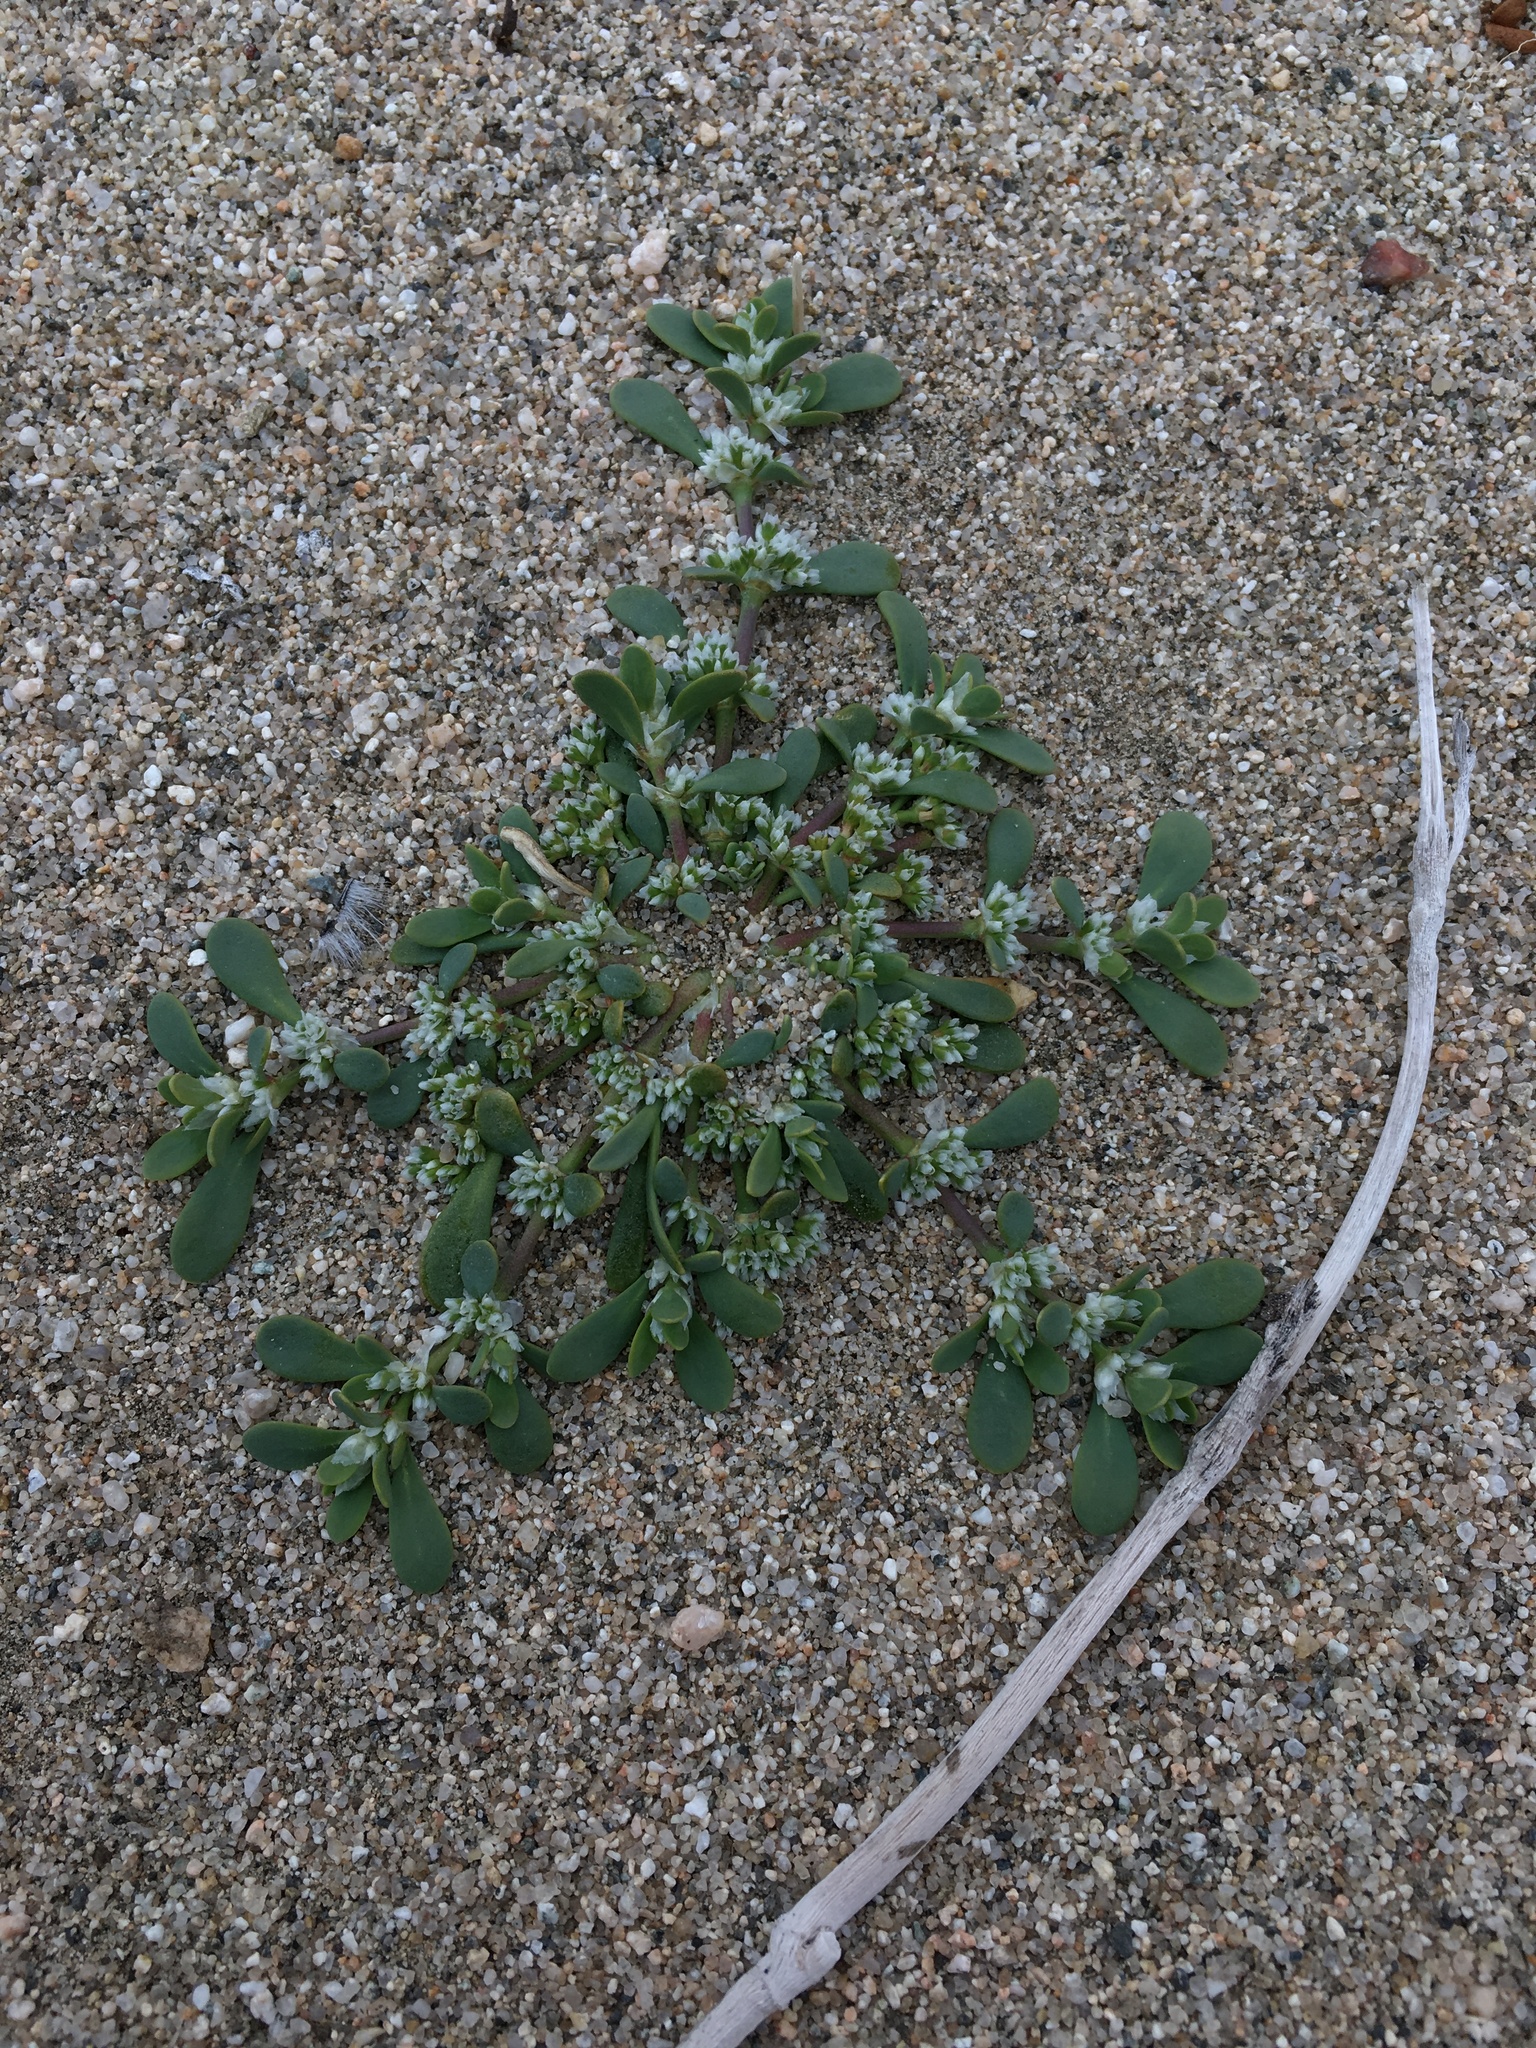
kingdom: Plantae
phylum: Tracheophyta
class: Magnoliopsida
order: Caryophyllales
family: Caryophyllaceae
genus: Achyronychia
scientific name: Achyronychia cooperi
